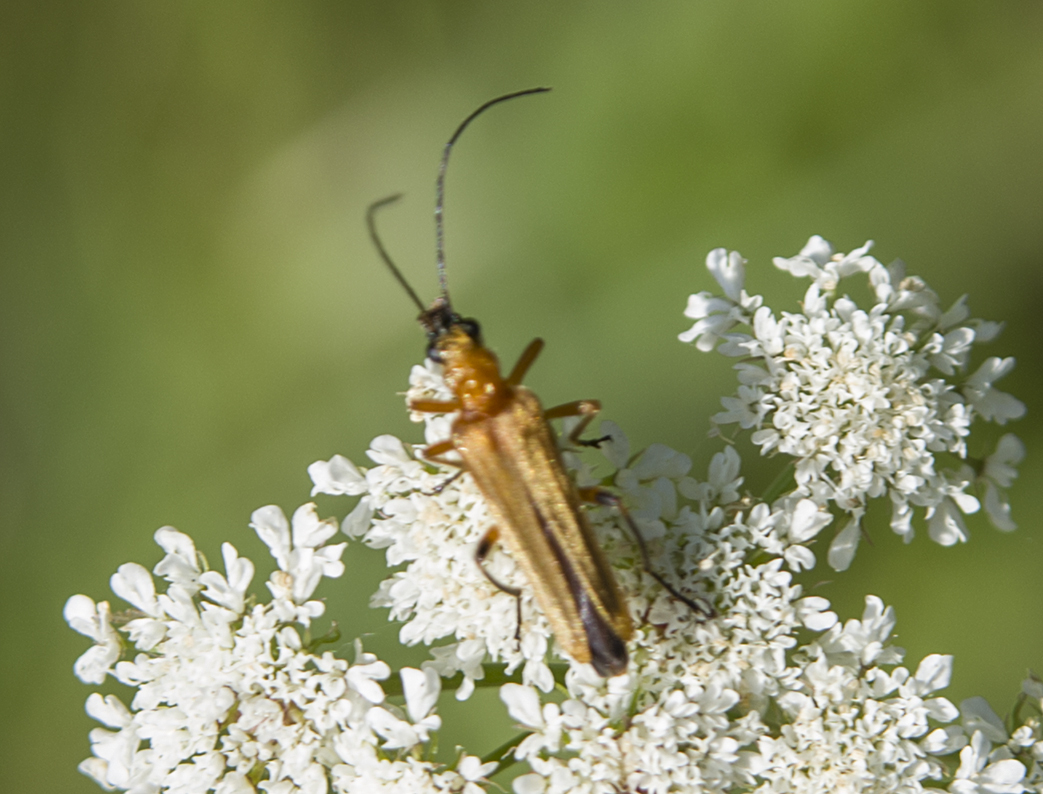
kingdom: Animalia
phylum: Arthropoda
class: Insecta
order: Coleoptera
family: Oedemeridae
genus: Oedemera
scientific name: Oedemera podagrariae
